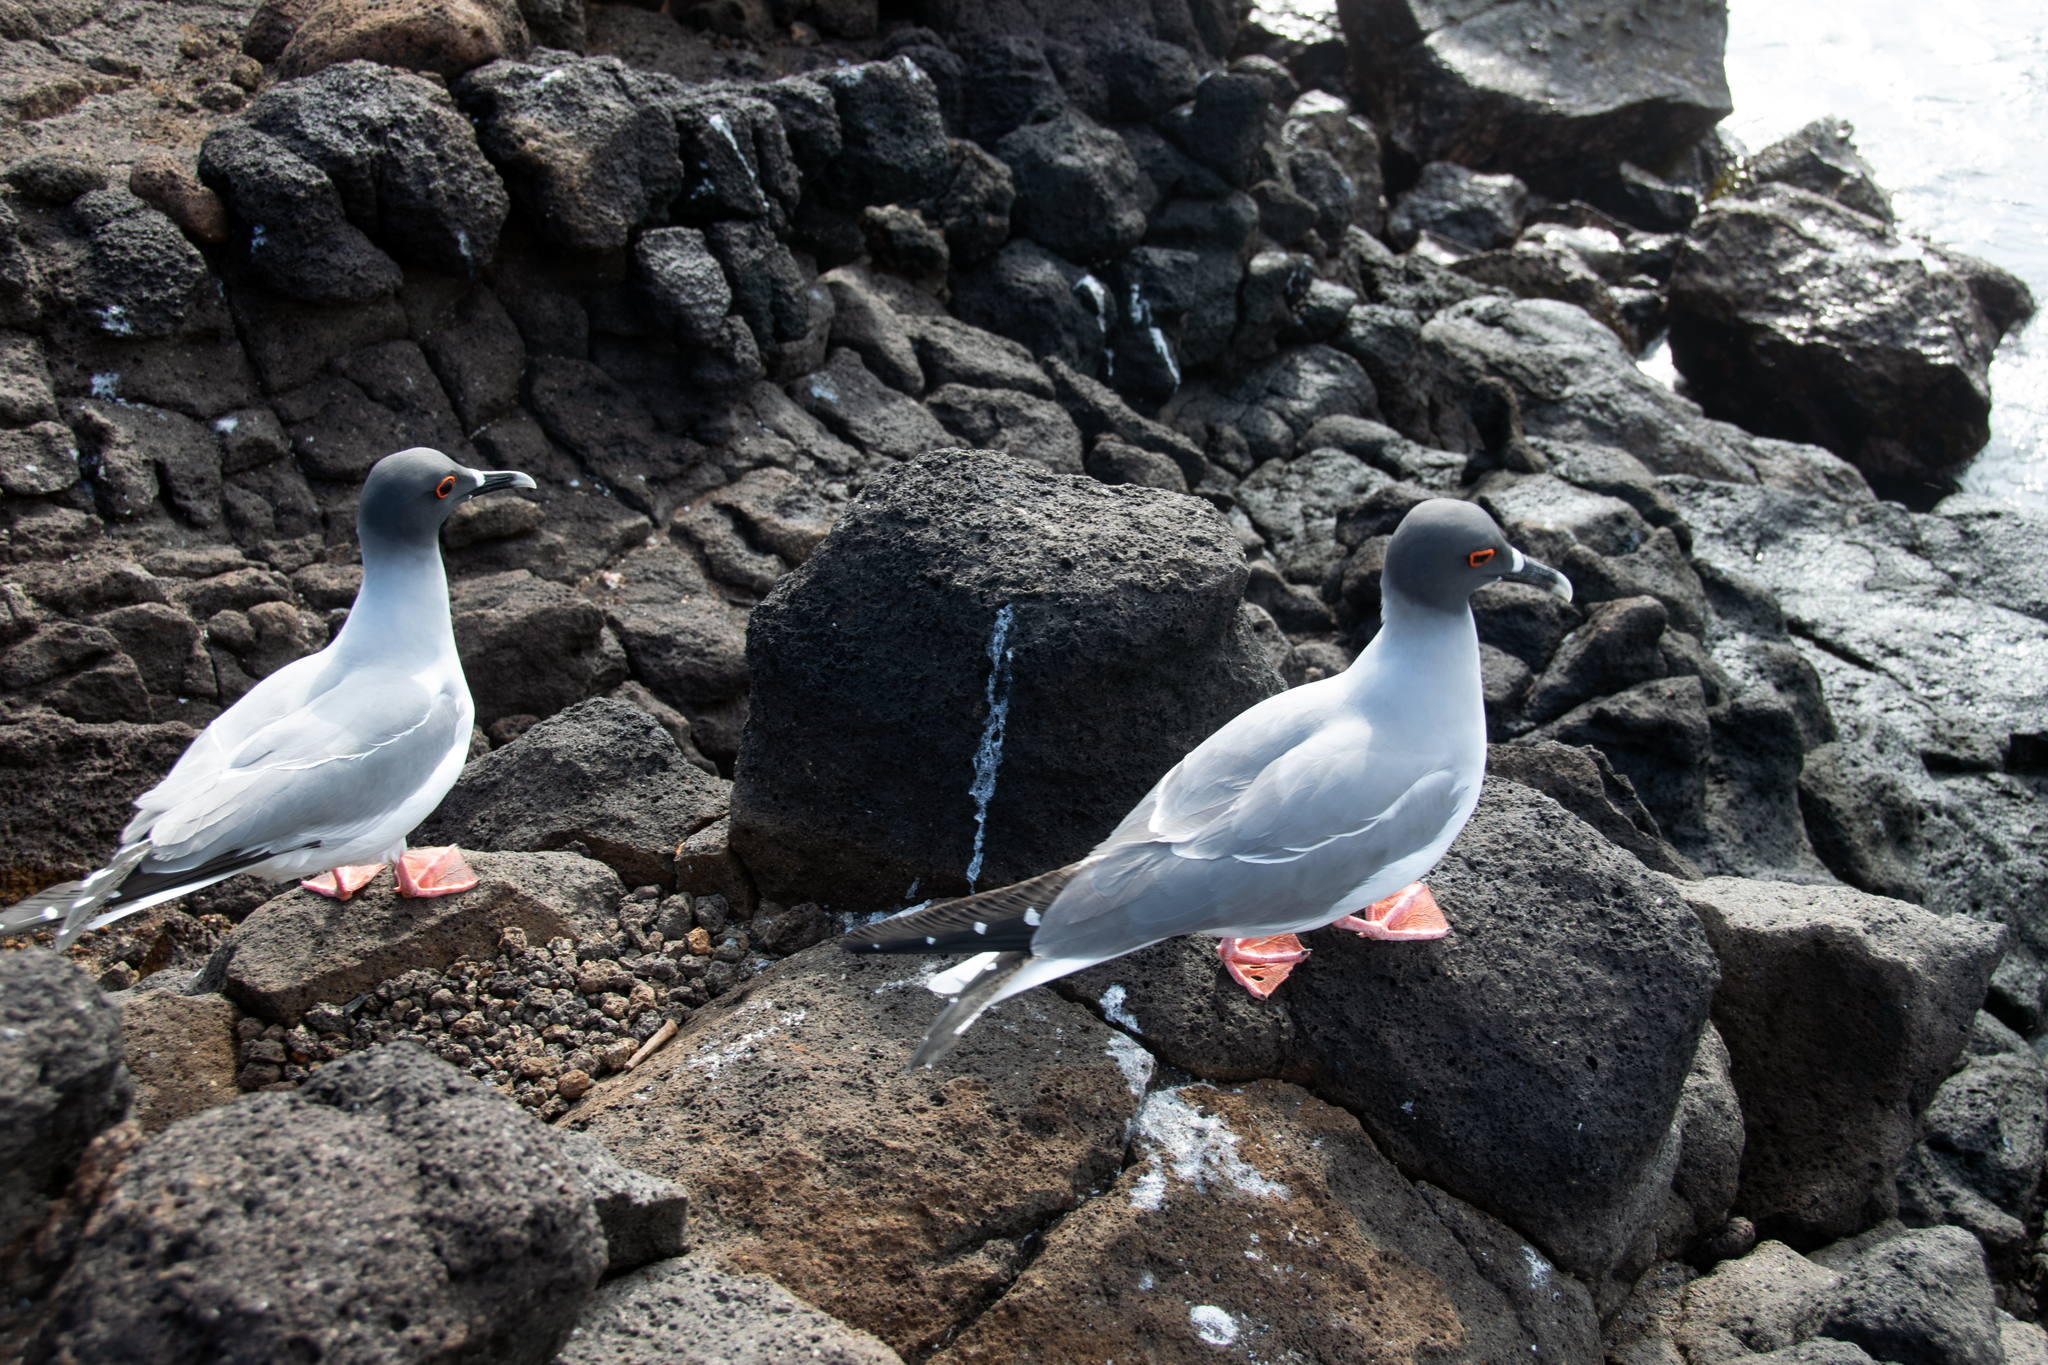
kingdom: Animalia
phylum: Chordata
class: Aves
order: Charadriiformes
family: Laridae
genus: Creagrus
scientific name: Creagrus furcatus
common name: Swallow-tailed gull
